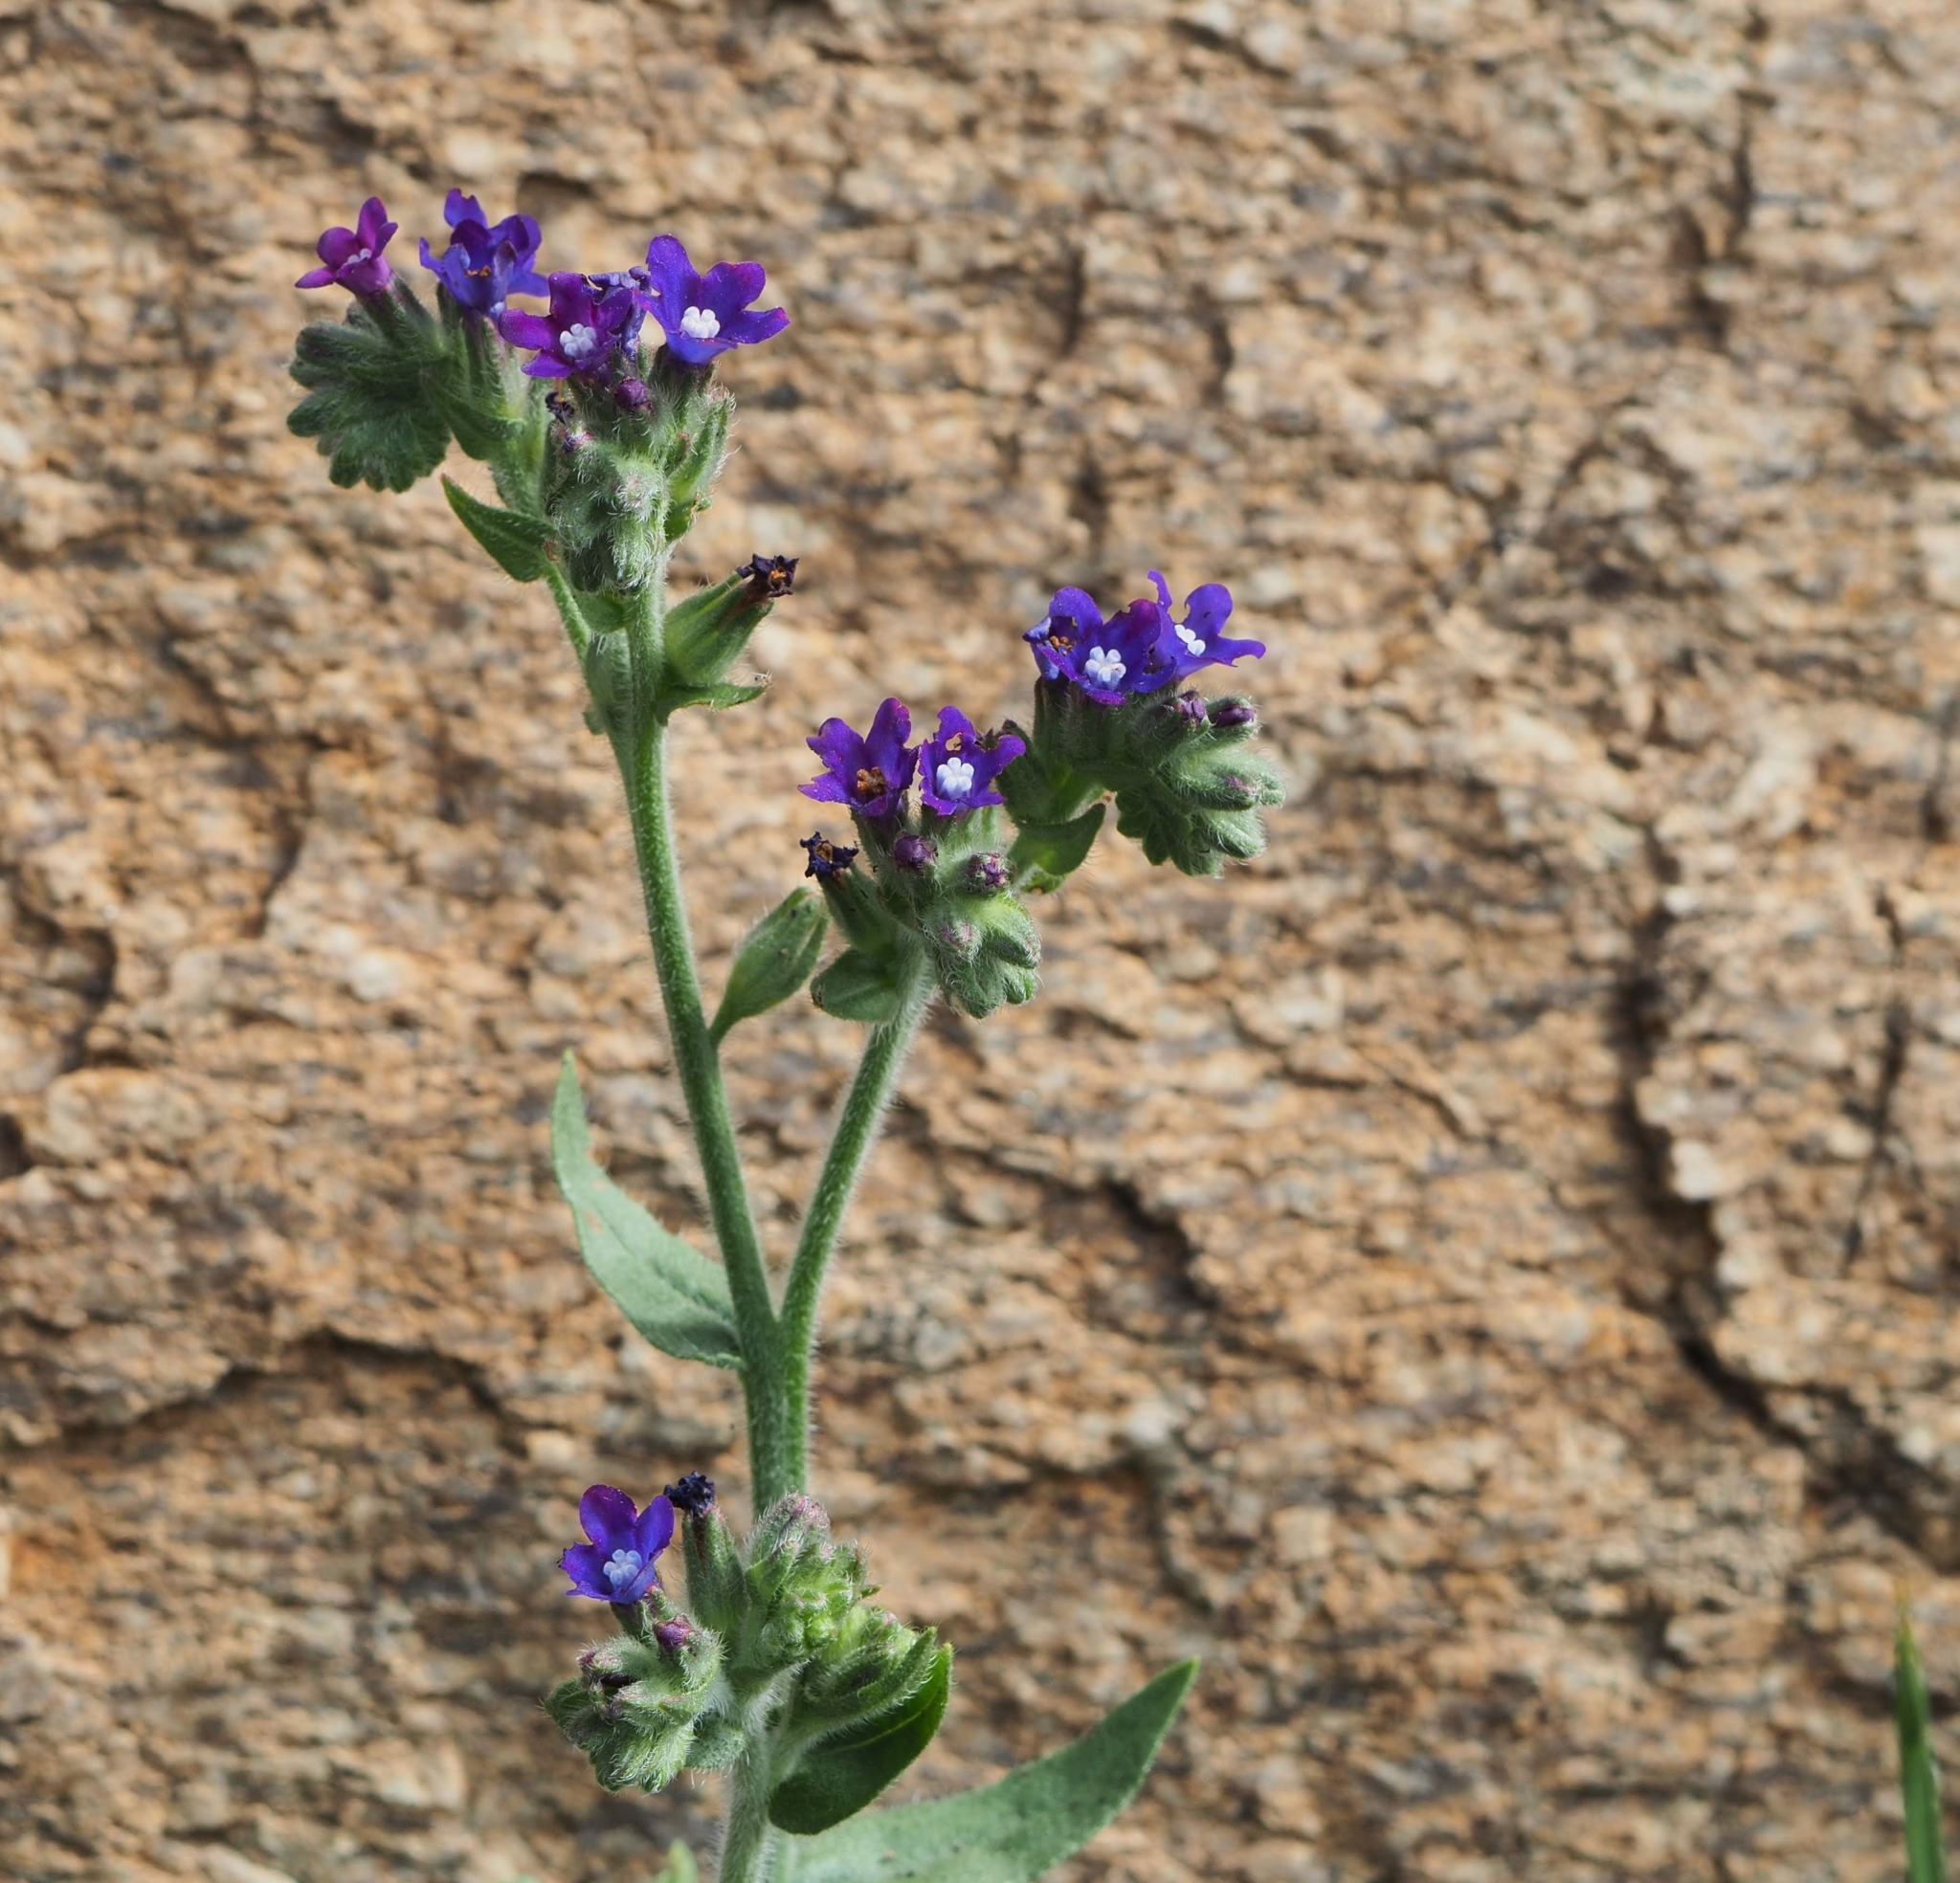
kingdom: Plantae
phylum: Tracheophyta
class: Magnoliopsida
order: Boraginales
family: Boraginaceae
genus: Anchusa
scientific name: Anchusa officinalis
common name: Alkanet
